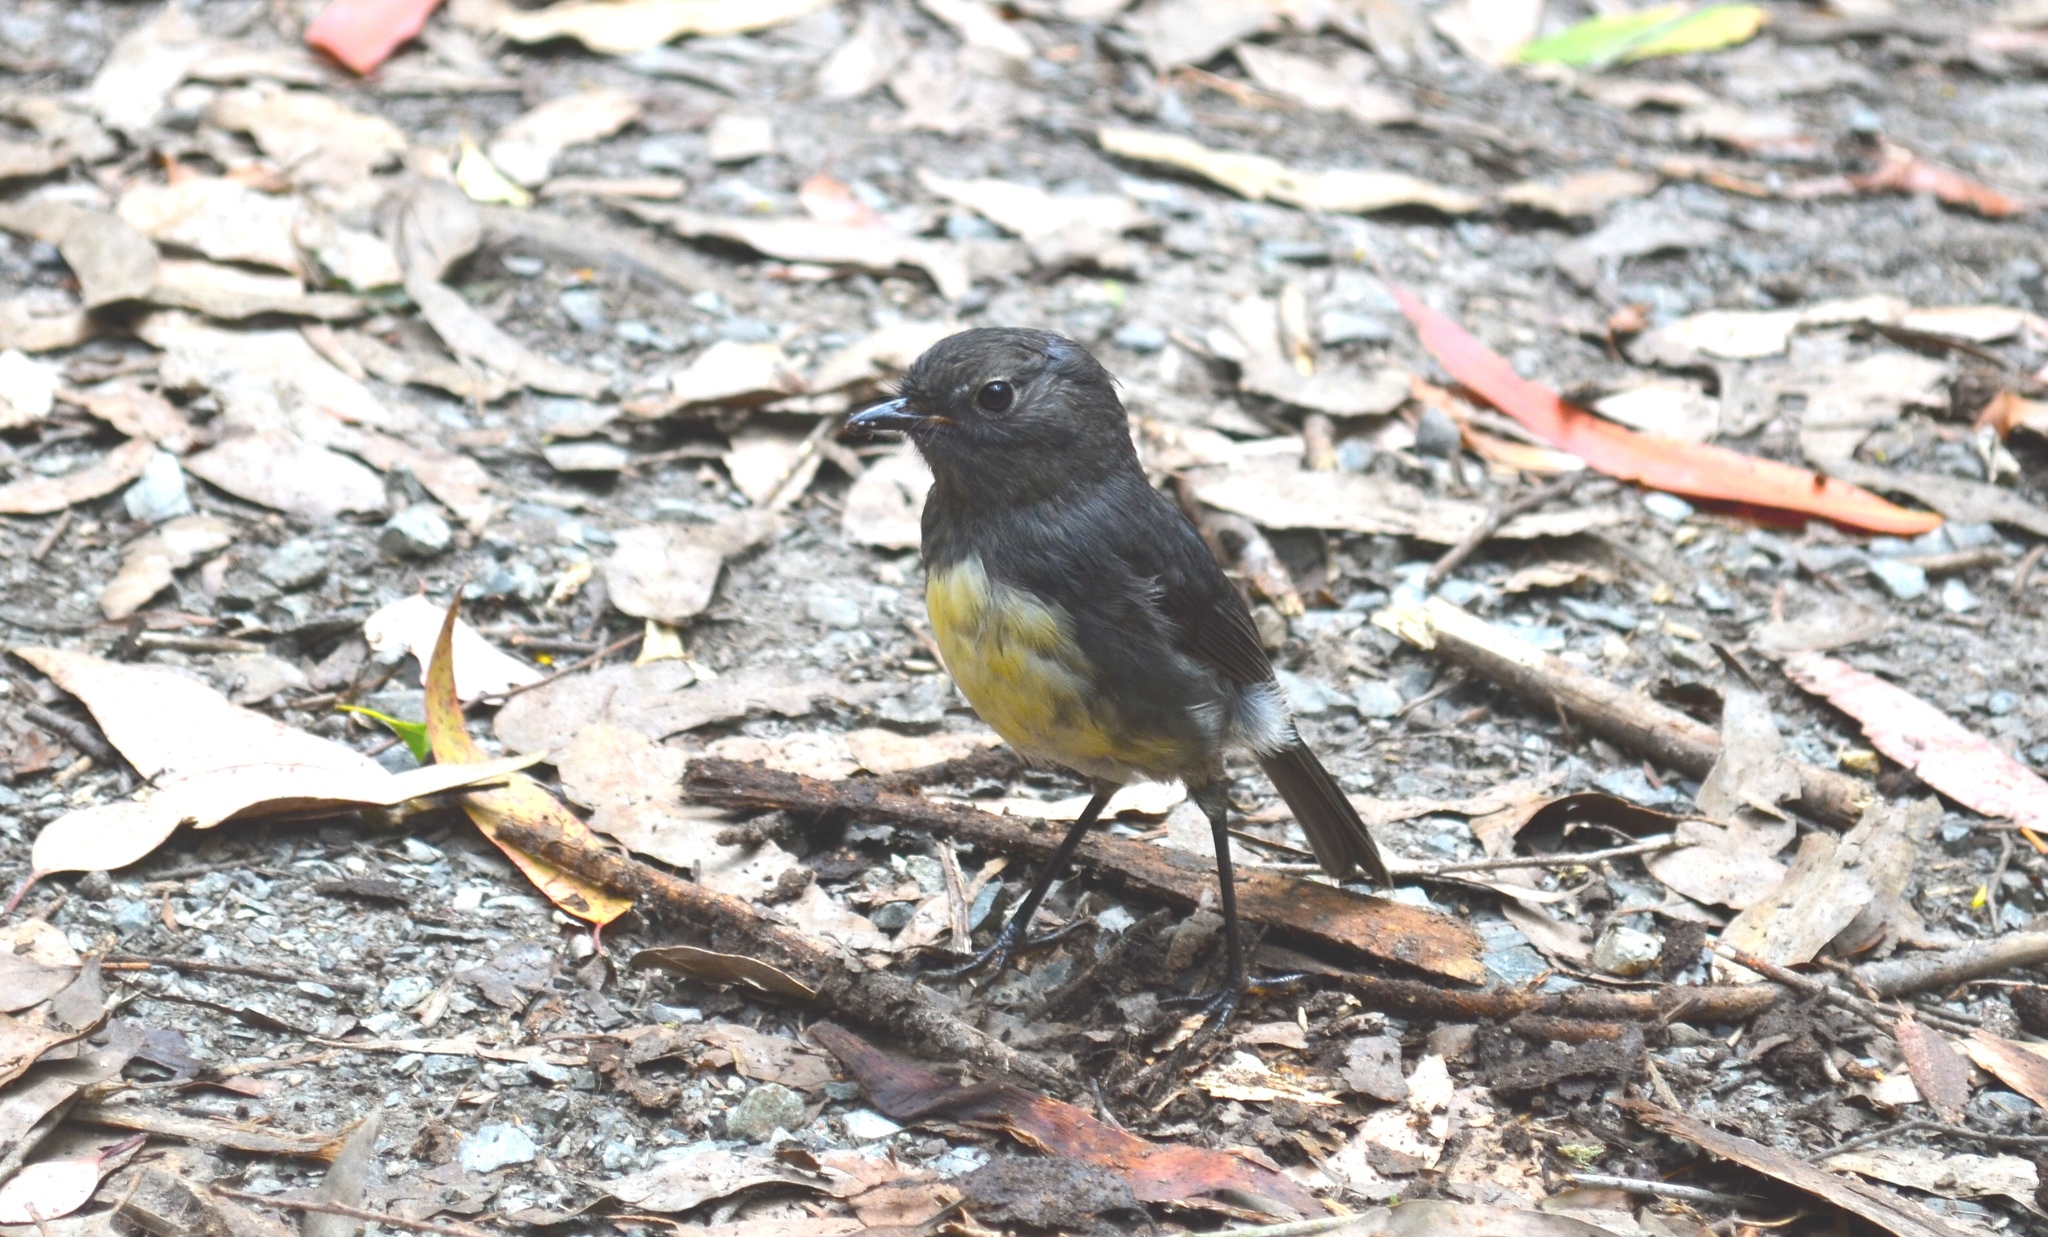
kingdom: Animalia
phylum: Chordata
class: Aves
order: Passeriformes
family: Petroicidae
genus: Petroica
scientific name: Petroica australis
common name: New zealand robin
